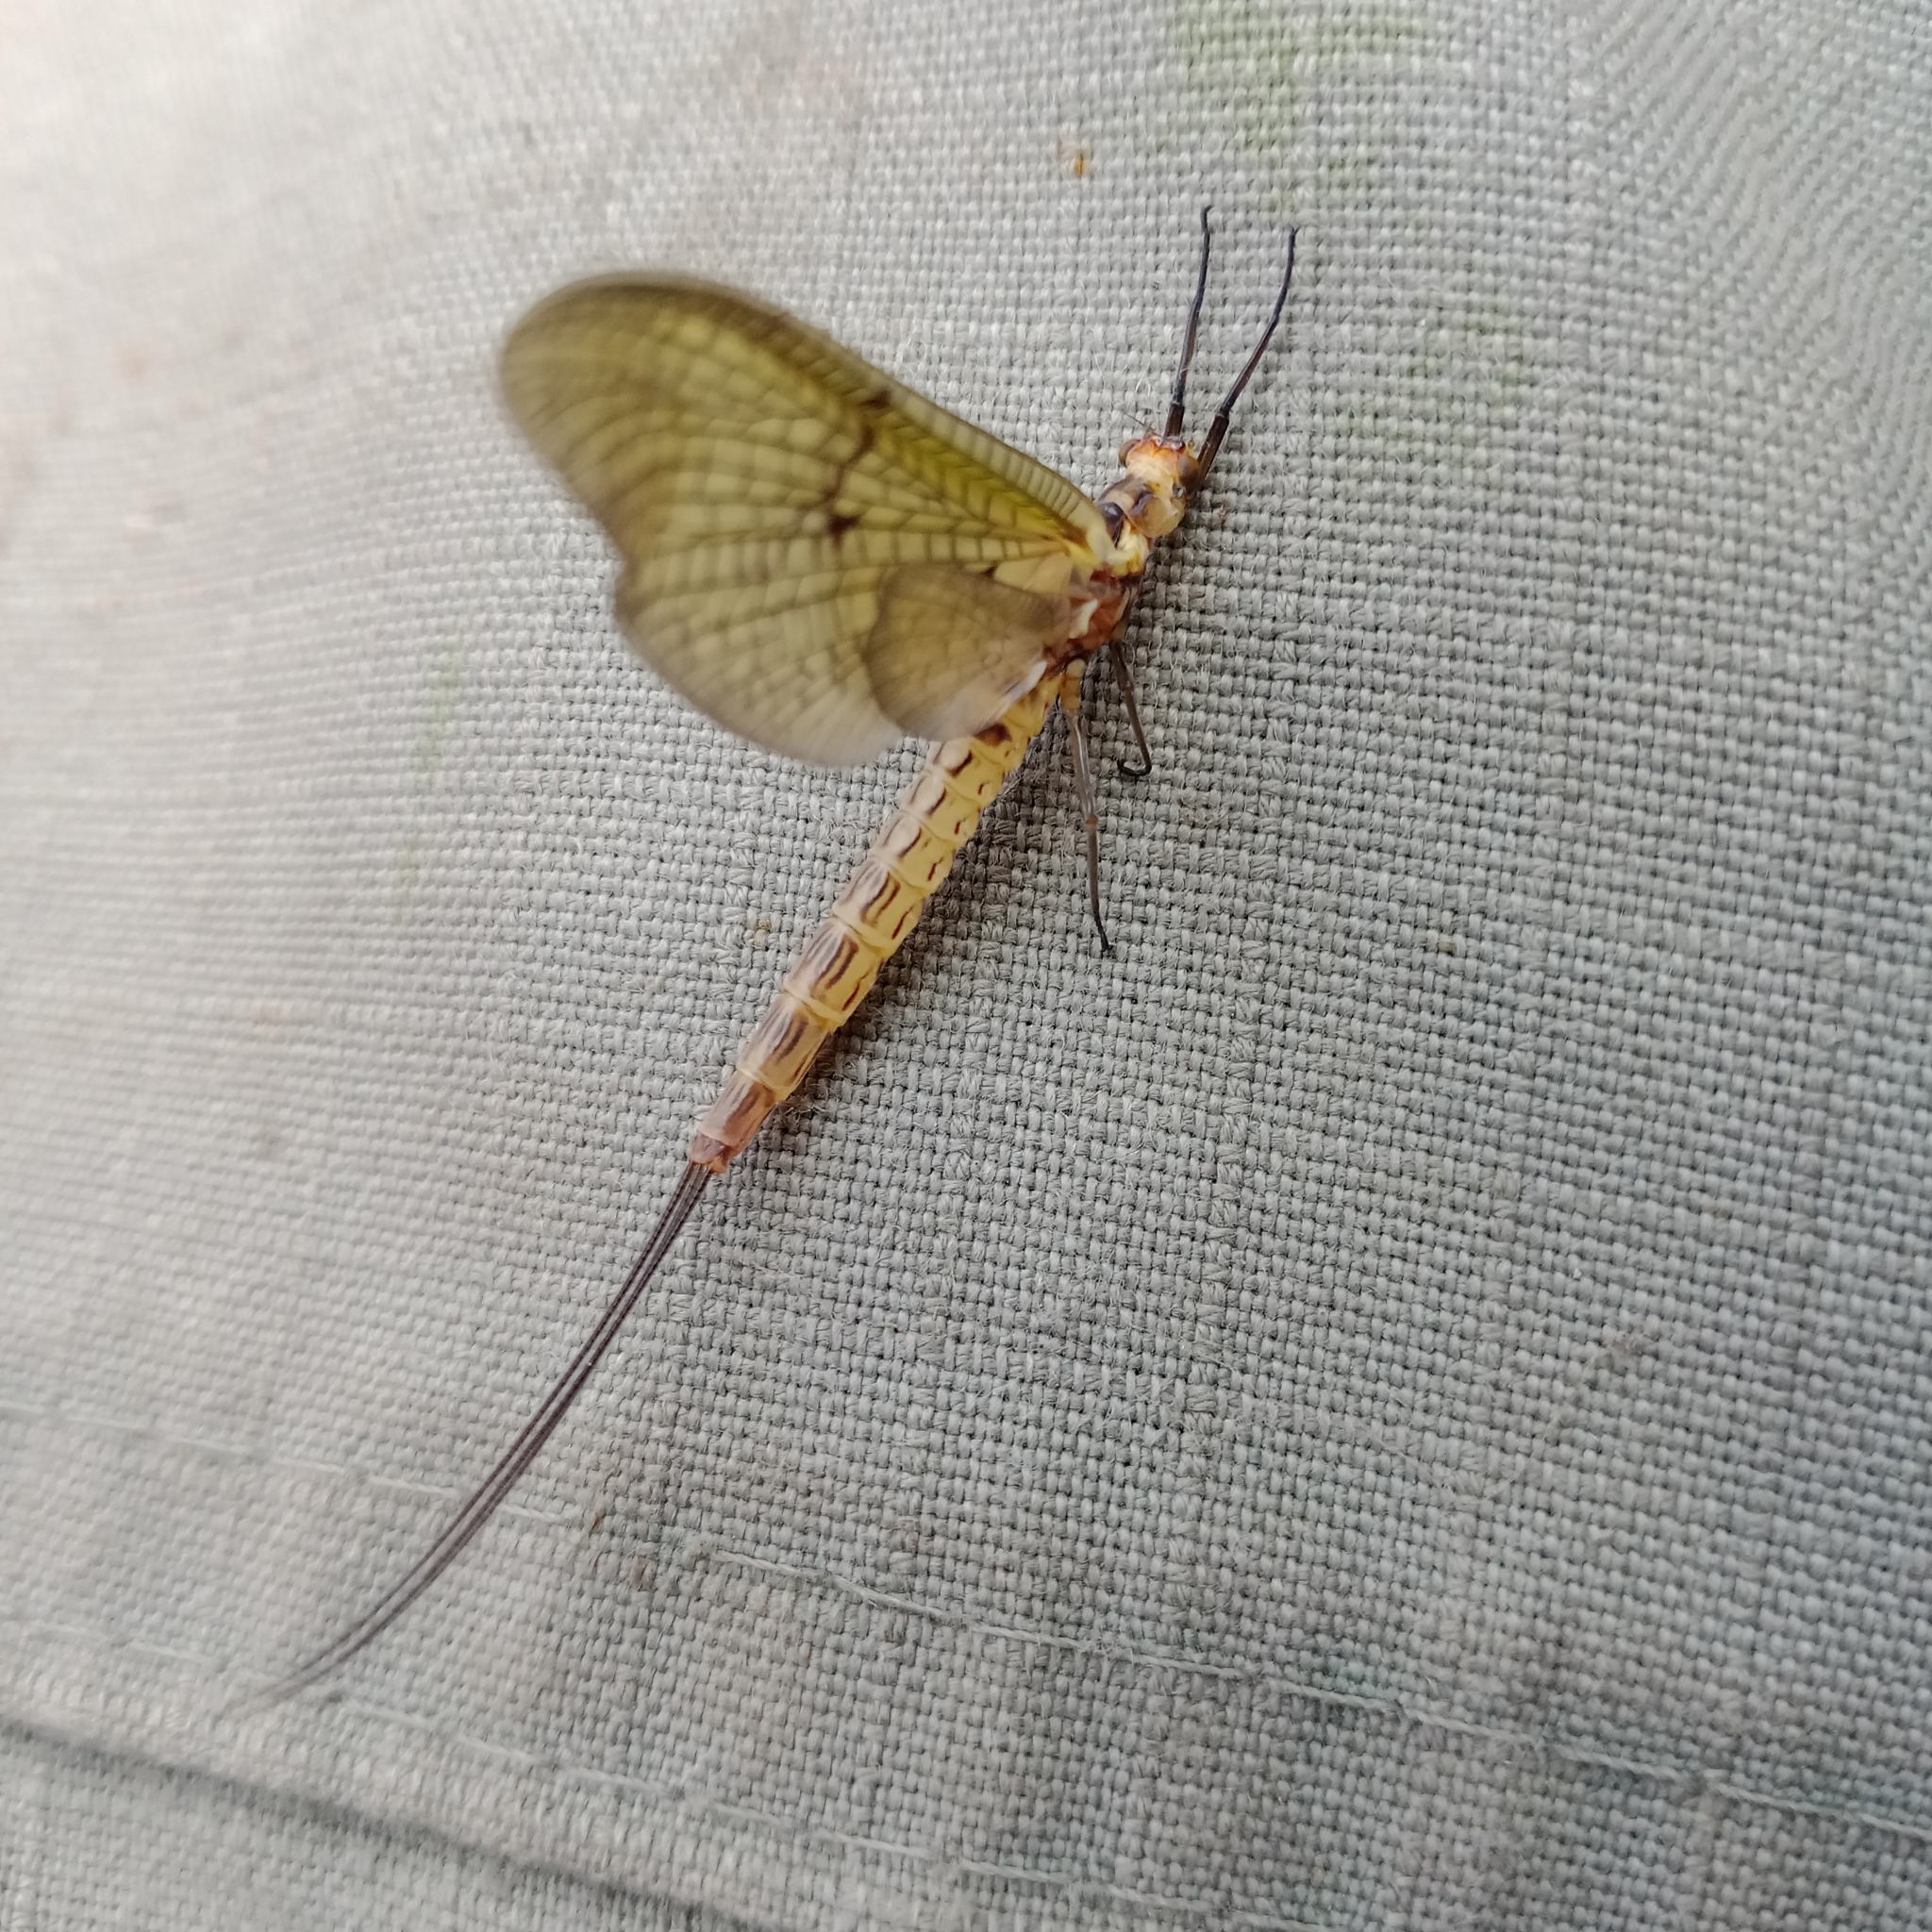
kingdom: Animalia
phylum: Arthropoda
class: Insecta
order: Ephemeroptera
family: Ephemeridae
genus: Ephemera
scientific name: Ephemera lineata
